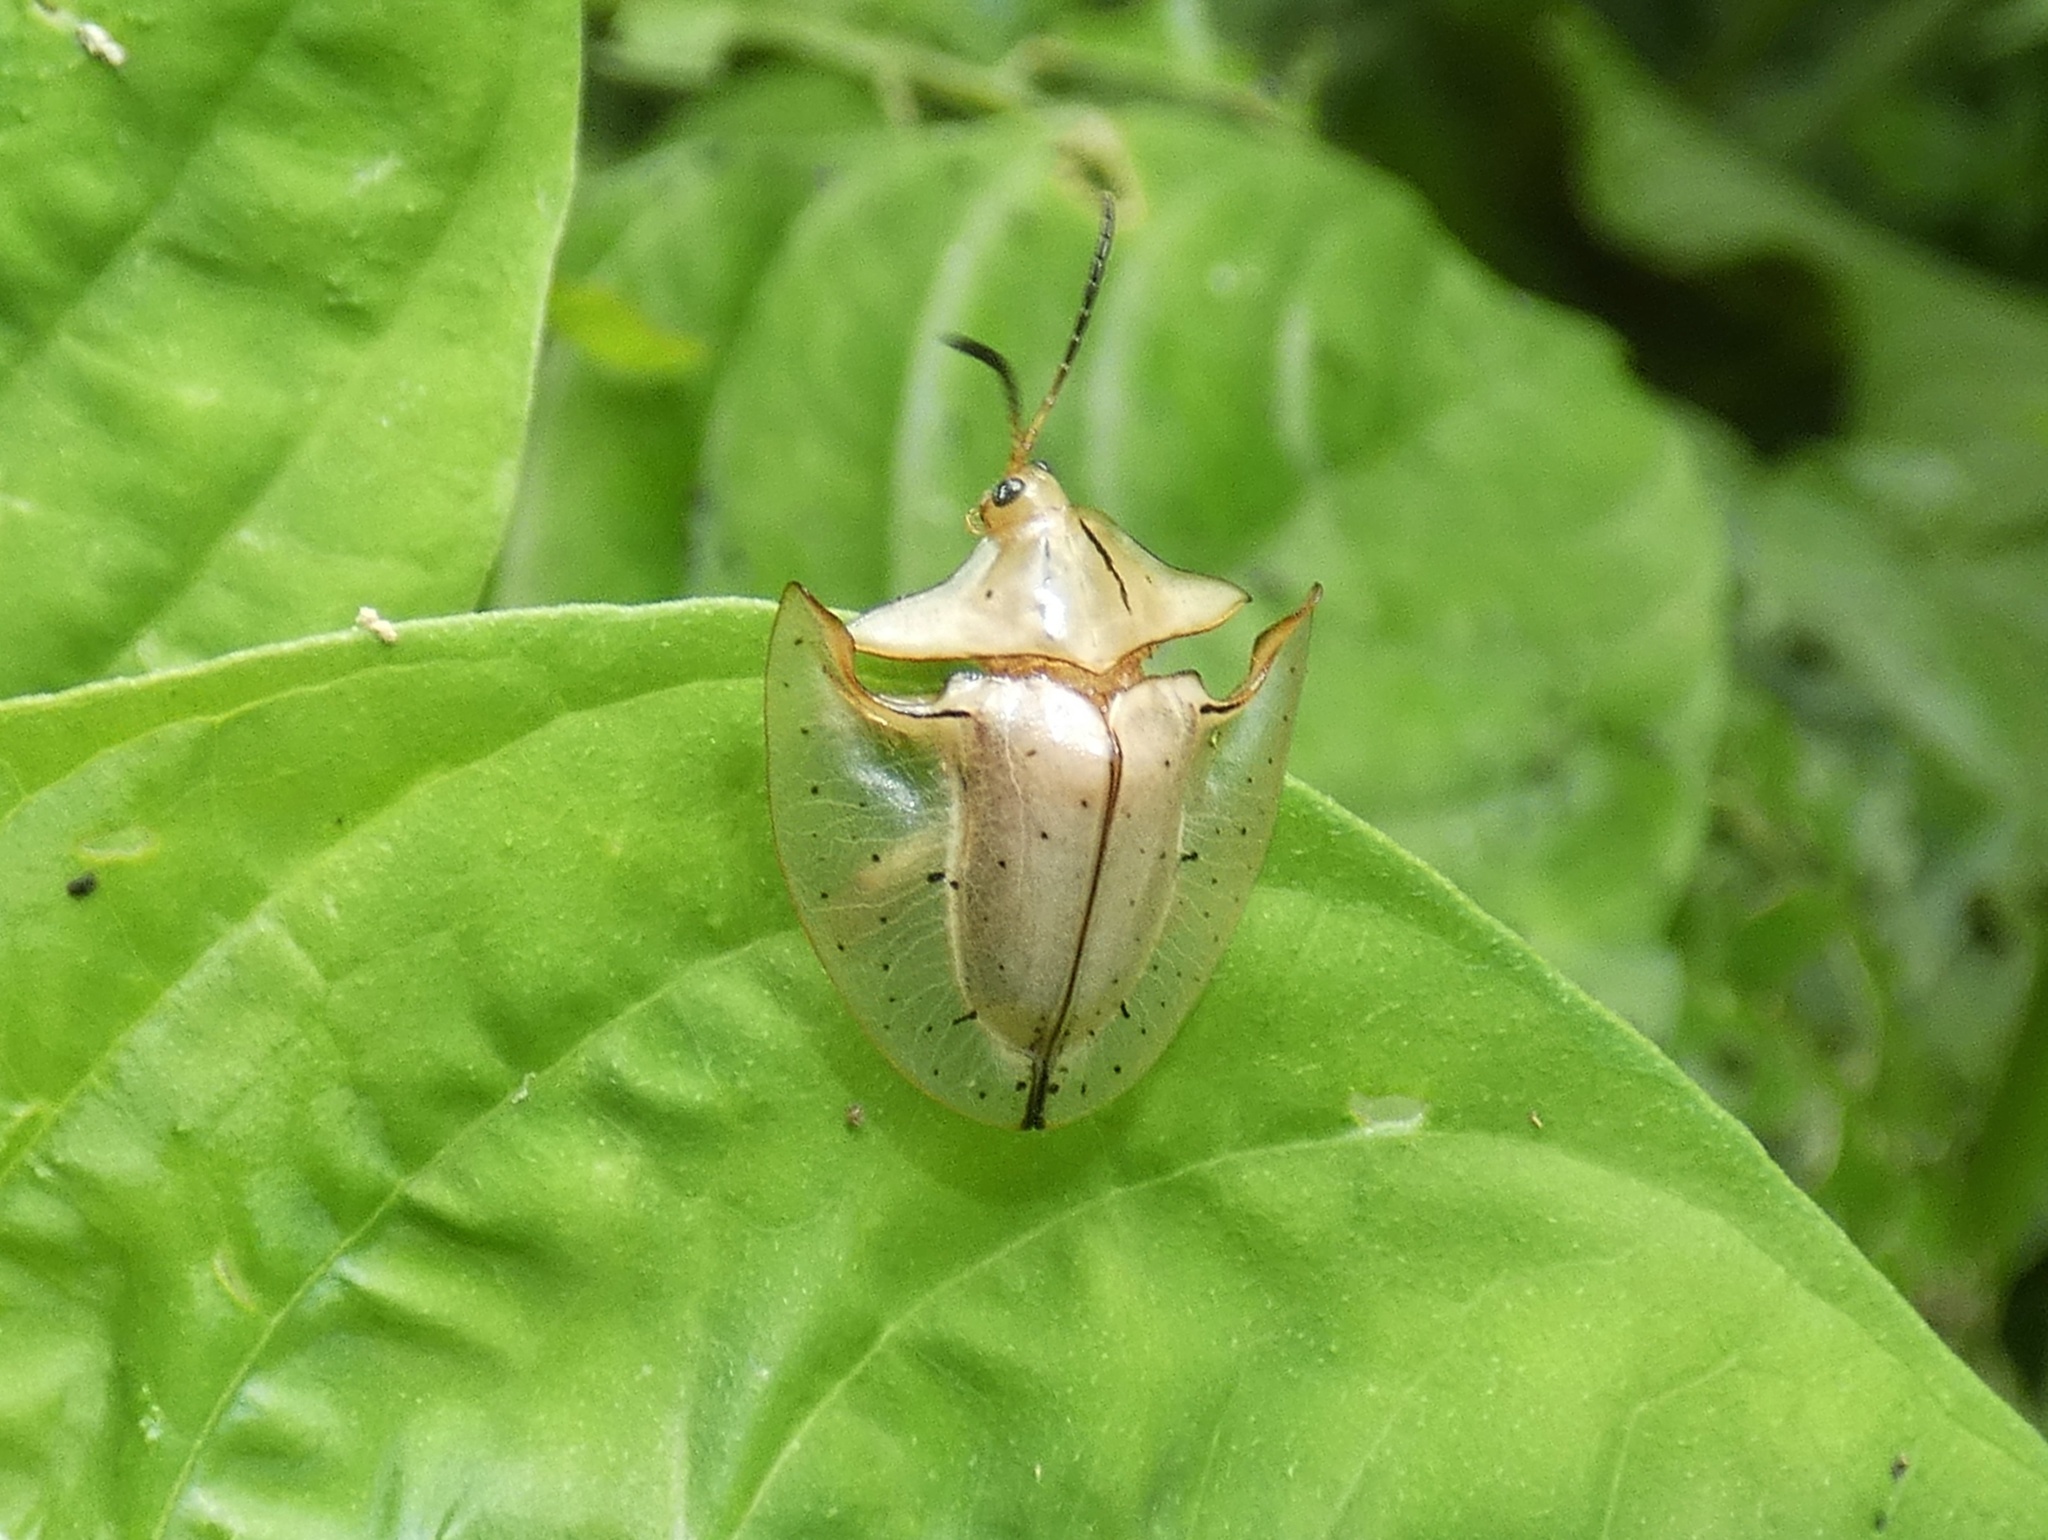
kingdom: Animalia
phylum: Arthropoda
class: Insecta
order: Coleoptera
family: Chrysomelidae
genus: Acromis
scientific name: Acromis sparsa
